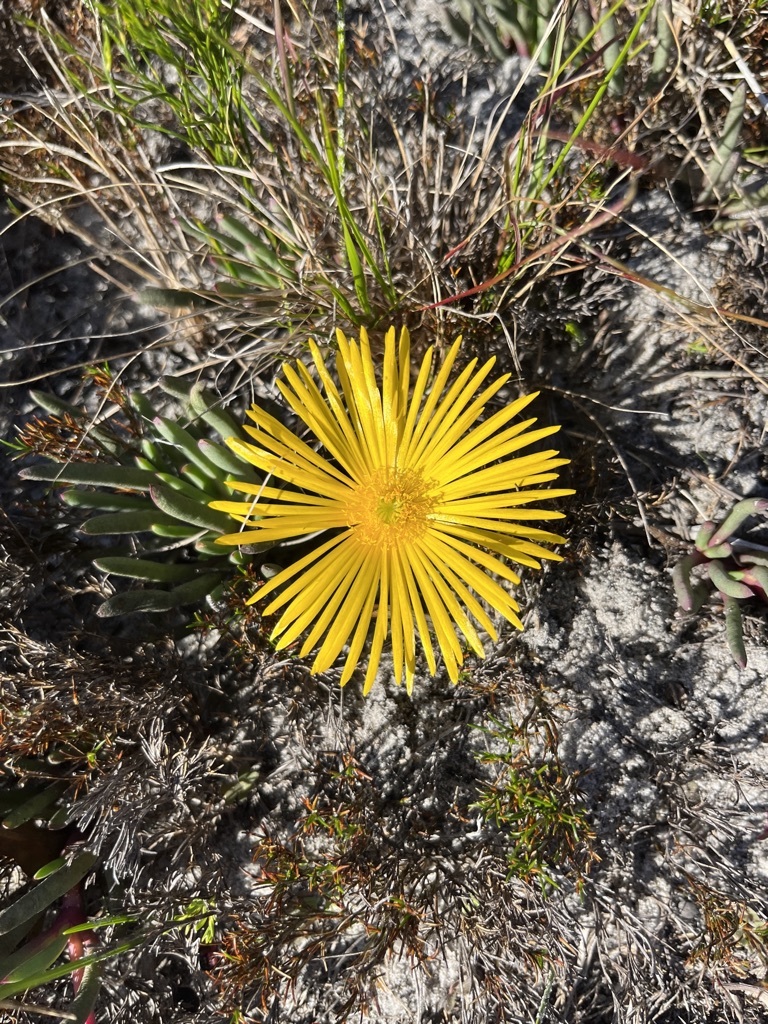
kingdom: Plantae
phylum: Tracheophyta
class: Magnoliopsida
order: Caryophyllales
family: Aizoaceae
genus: Jordaaniella
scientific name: Jordaaniella dubia
